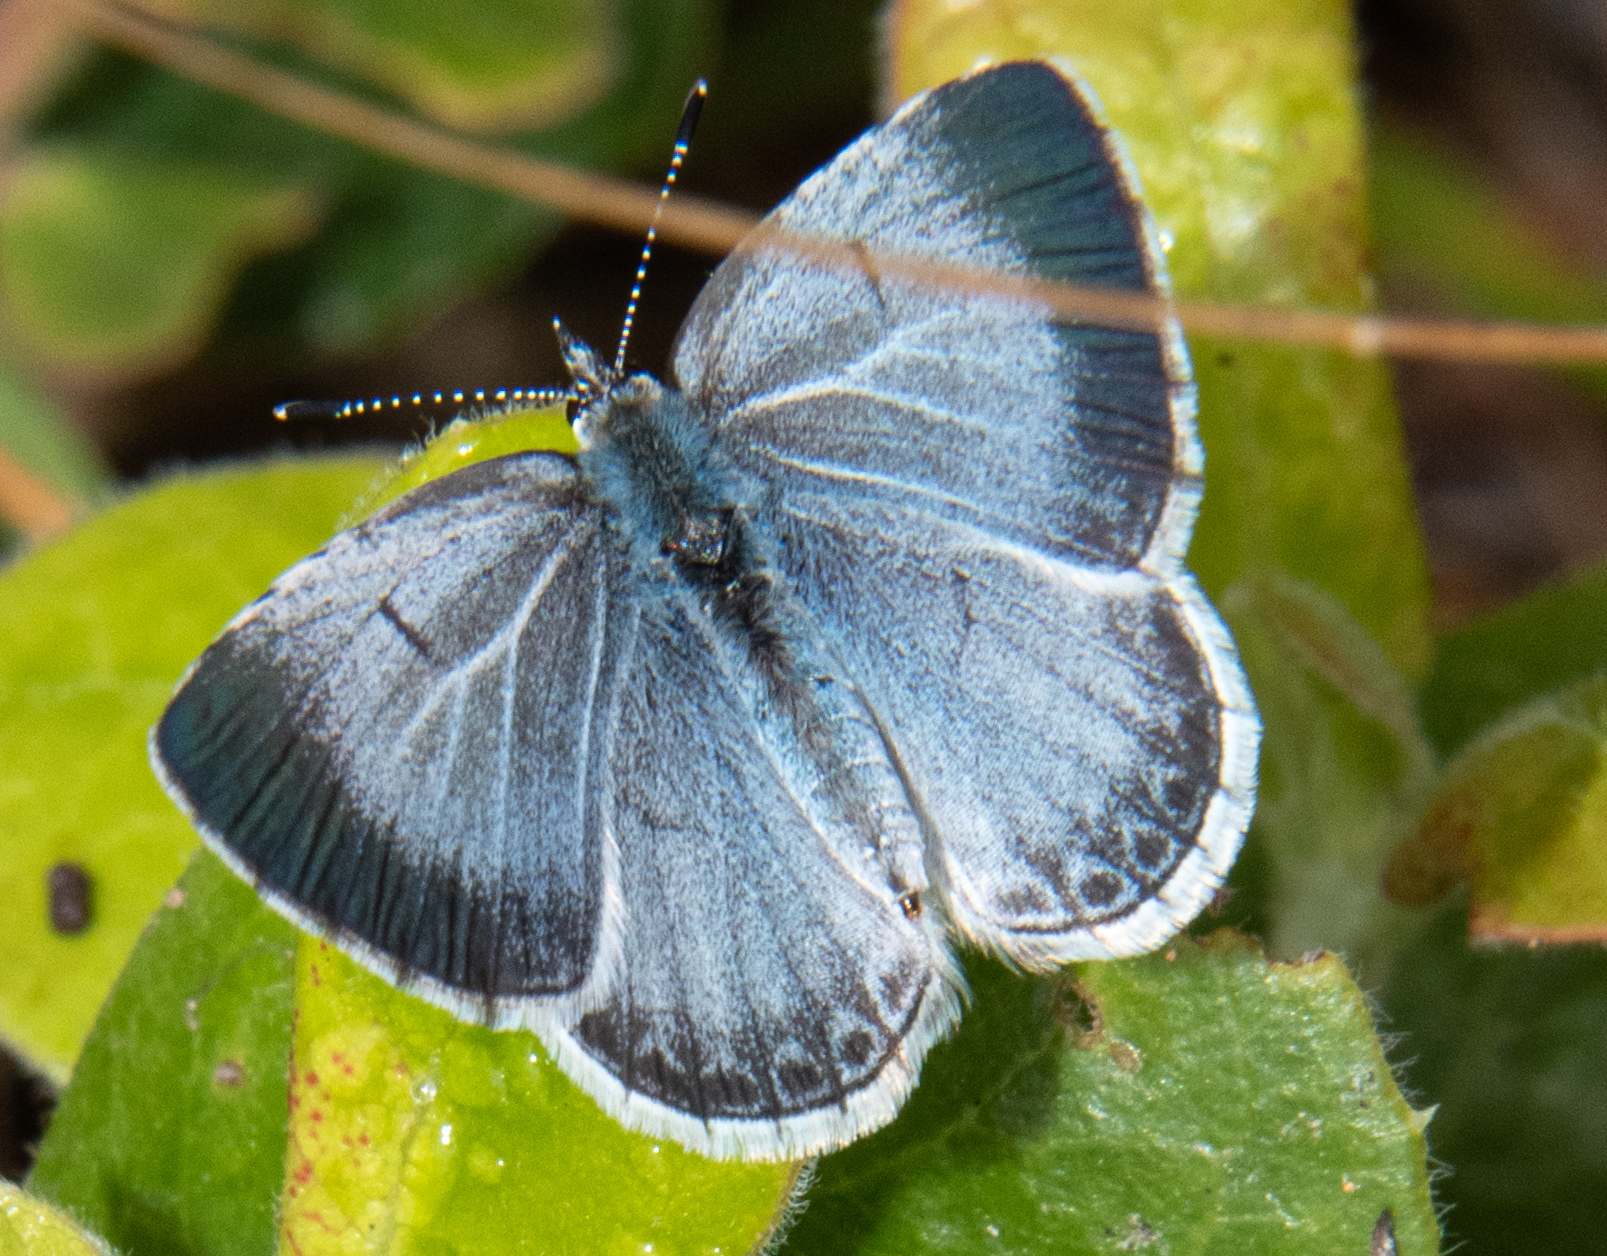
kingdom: Animalia
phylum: Arthropoda
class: Insecta
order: Lepidoptera
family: Lycaenidae
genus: Celastrina
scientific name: Celastrina ladon
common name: Spring azure
